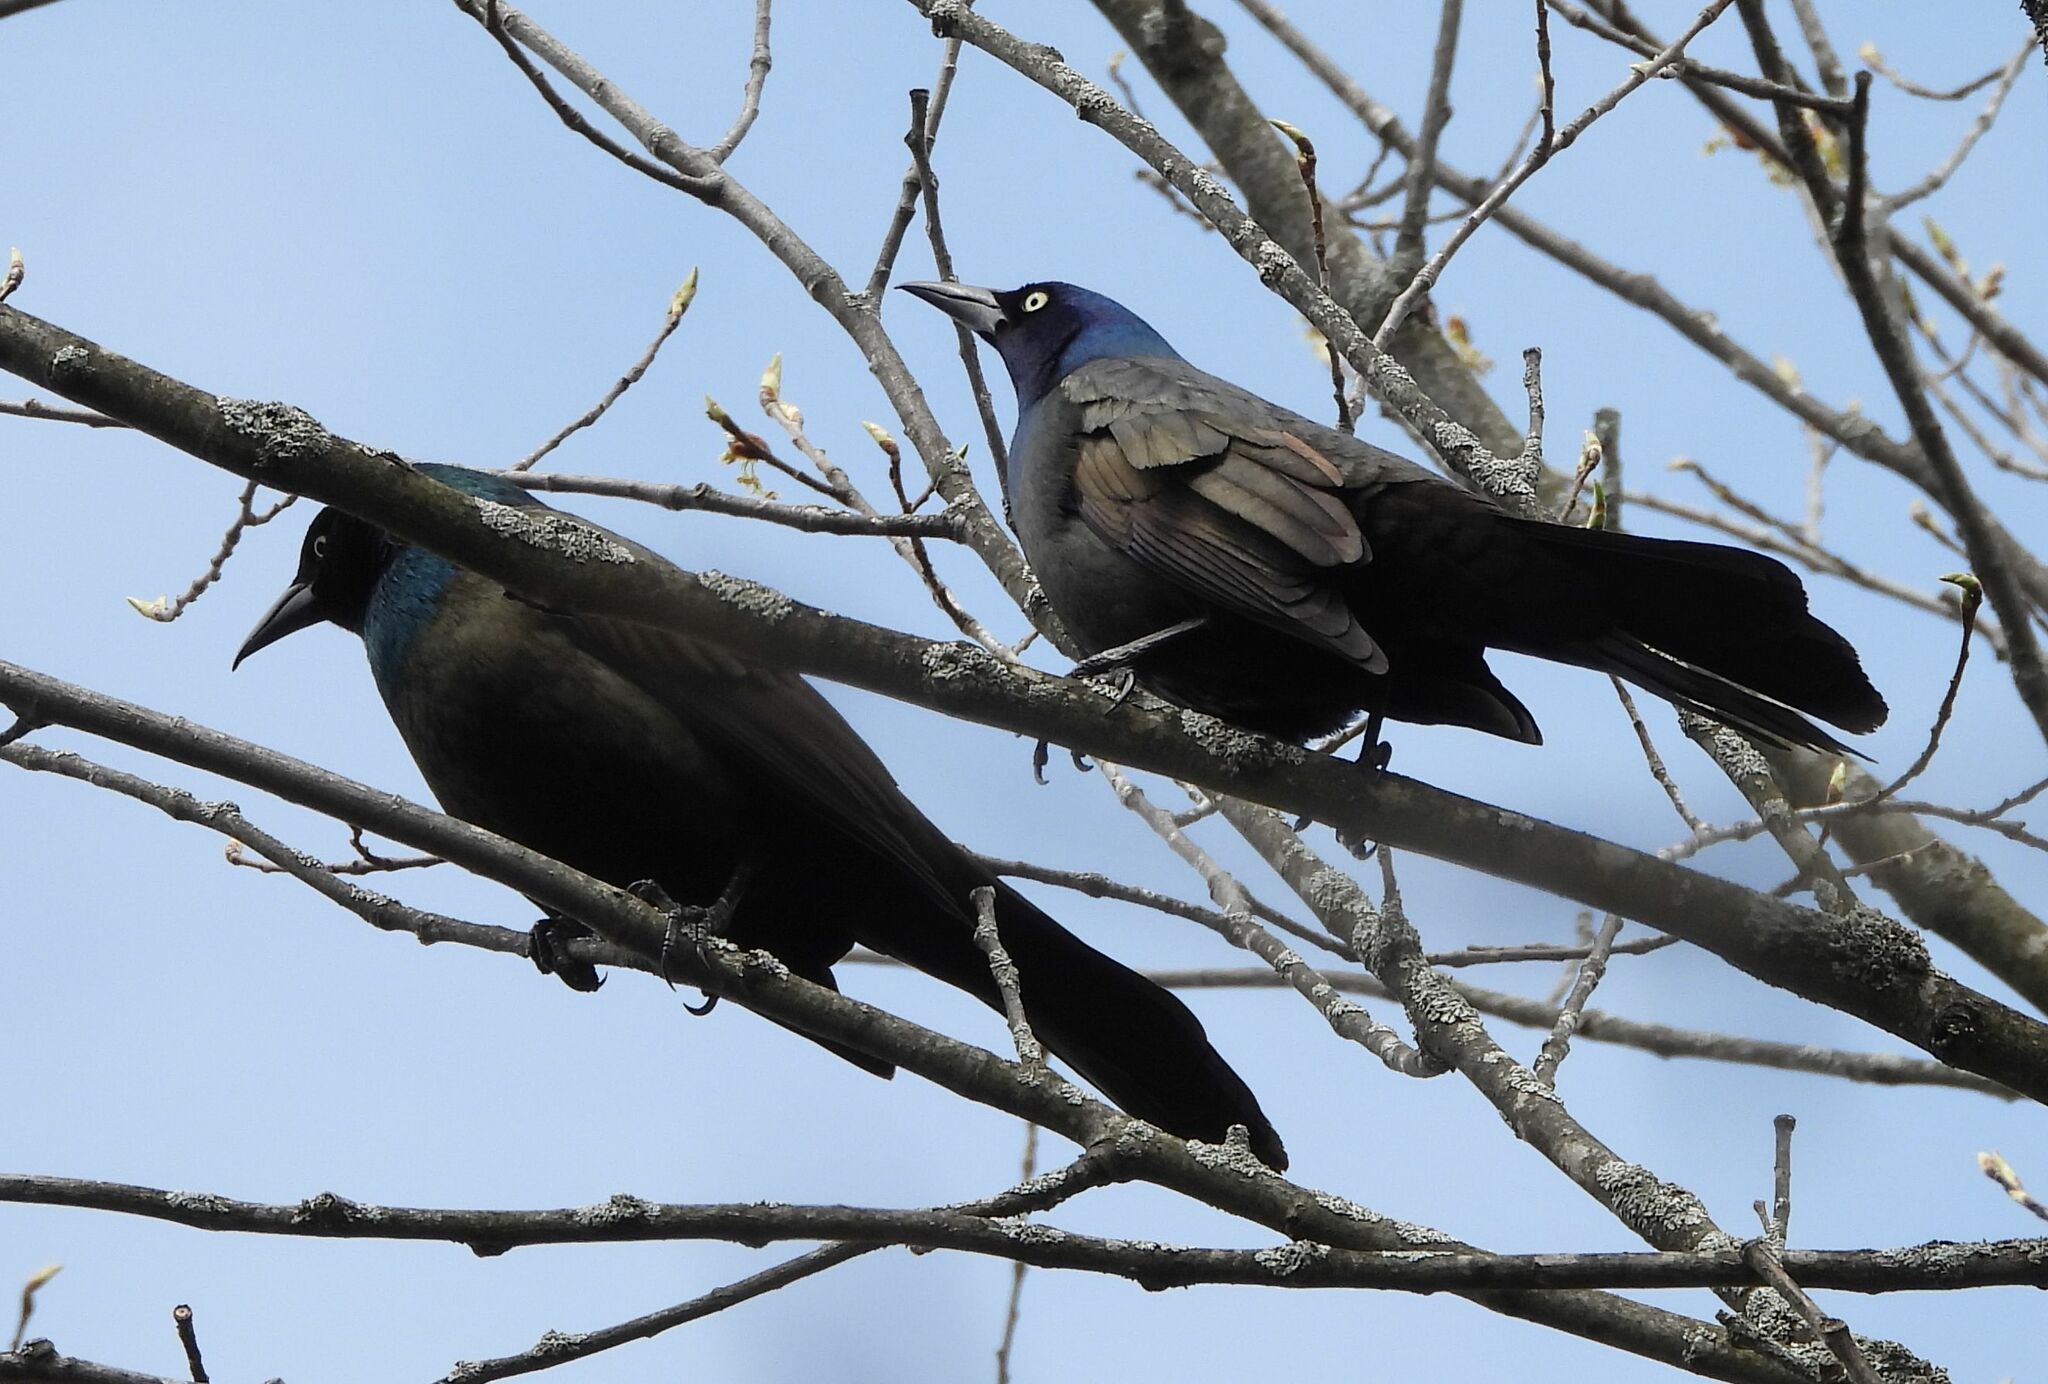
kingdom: Animalia
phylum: Chordata
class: Aves
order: Passeriformes
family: Icteridae
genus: Quiscalus
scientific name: Quiscalus quiscula
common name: Common grackle
